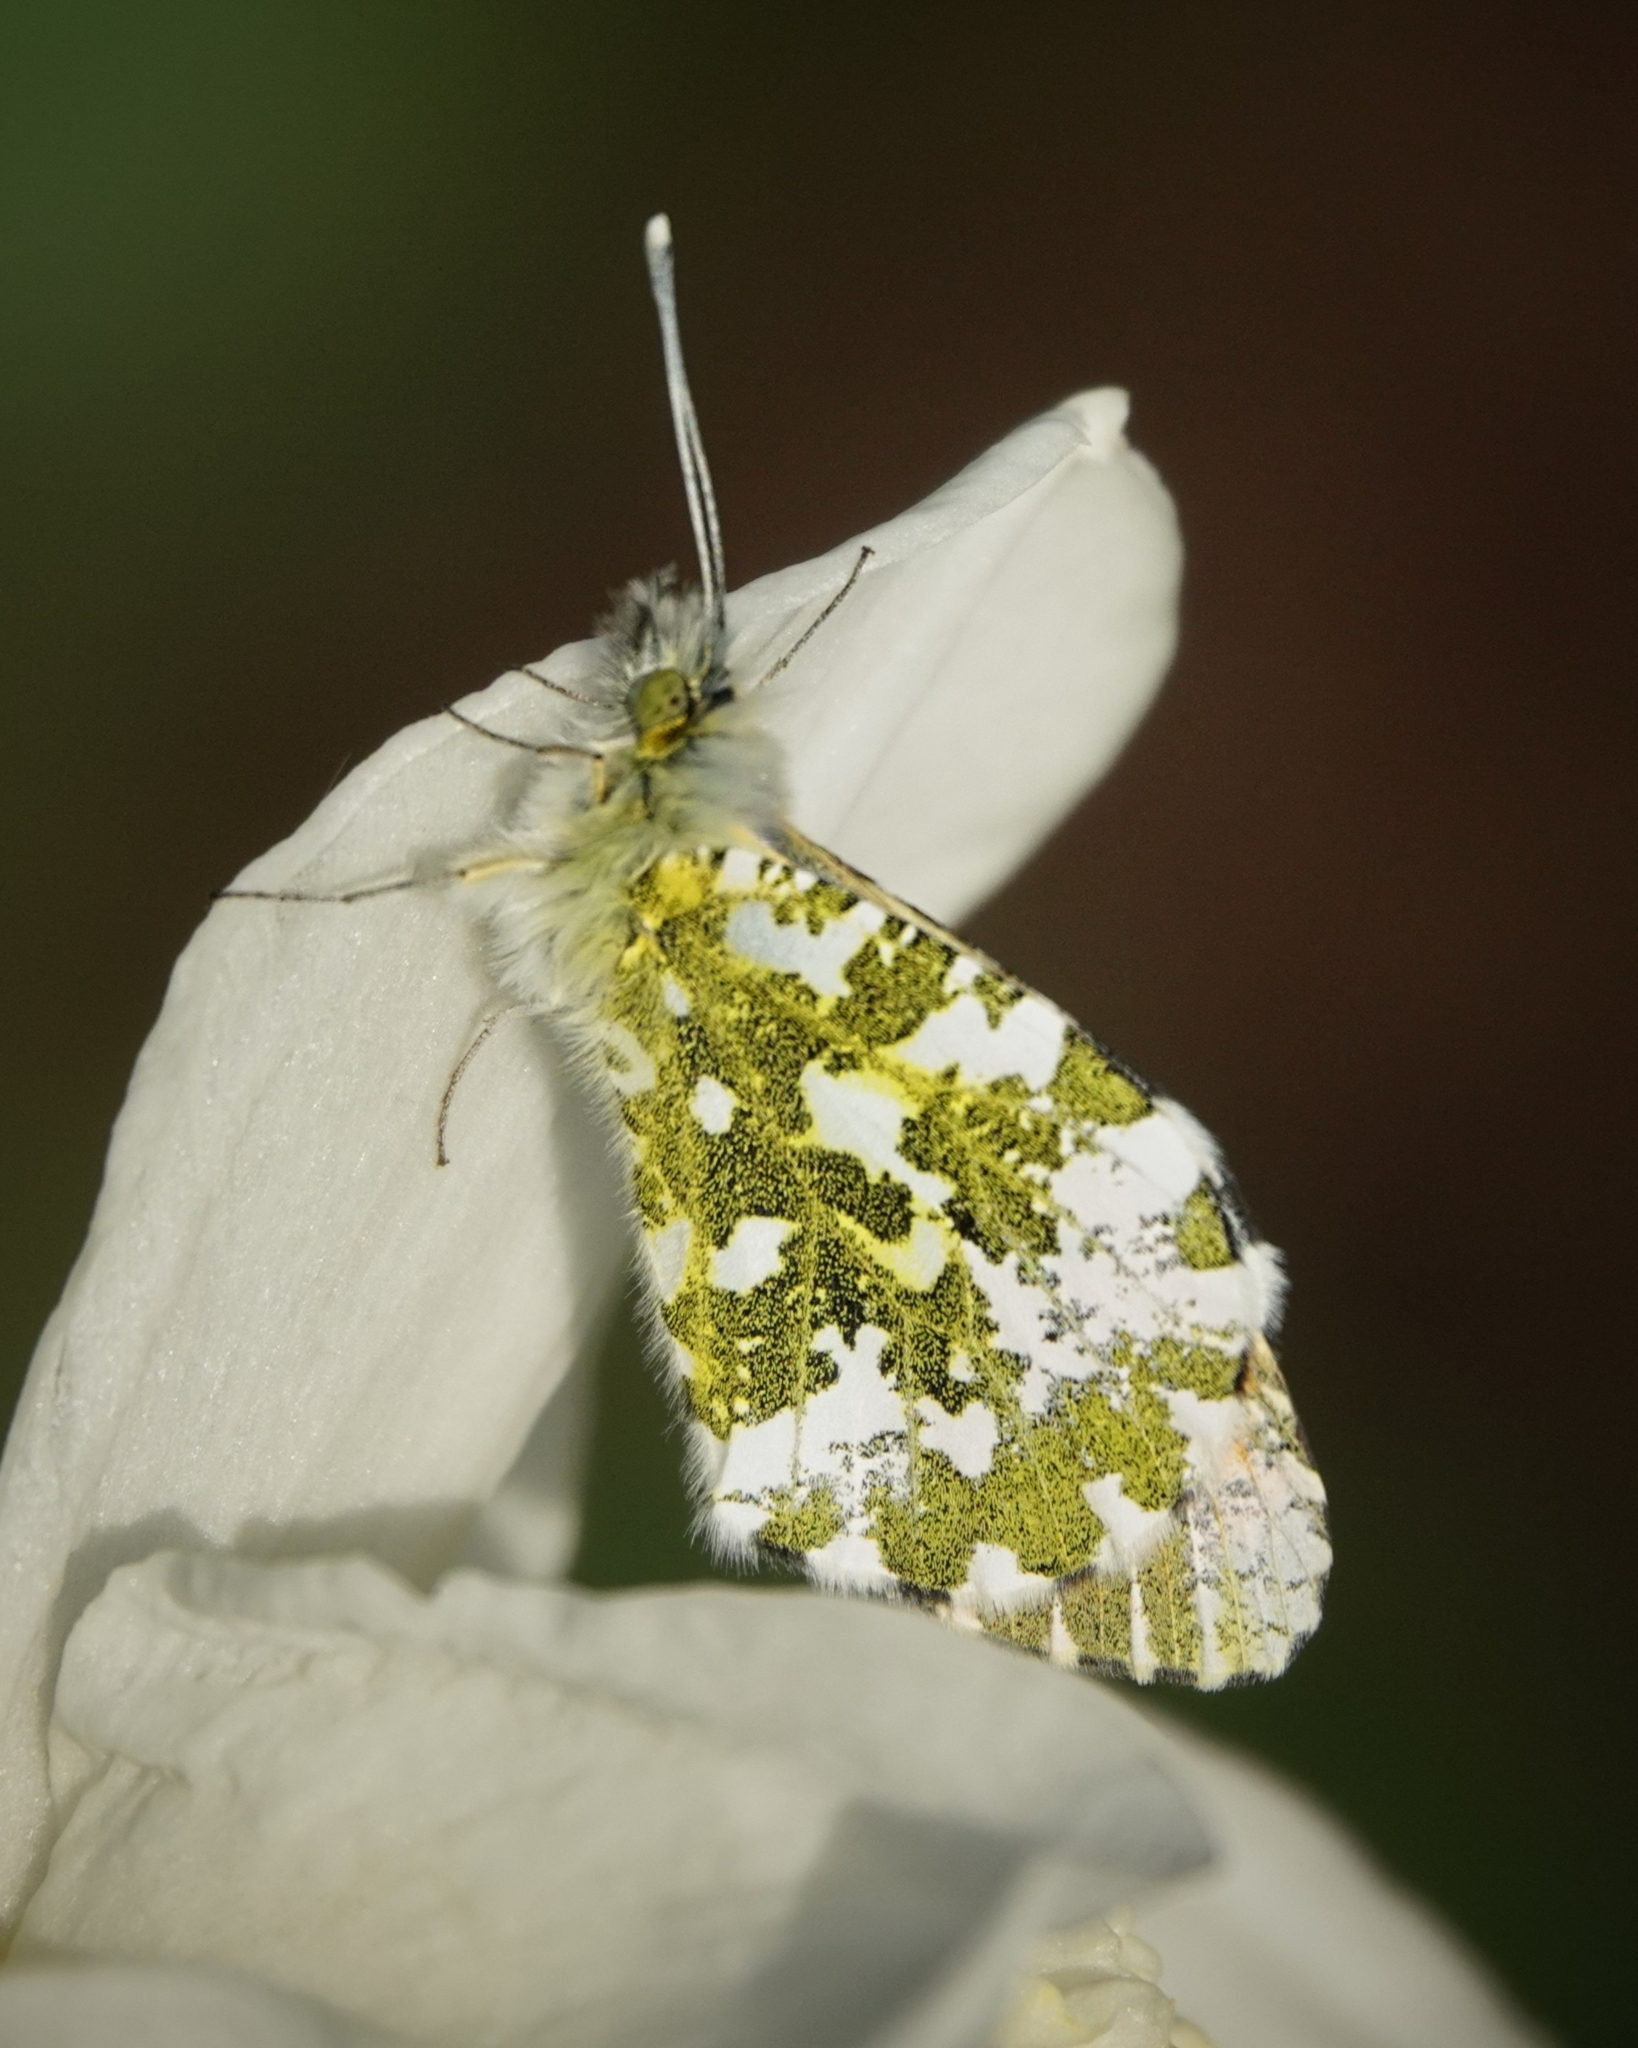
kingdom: Animalia
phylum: Arthropoda
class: Insecta
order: Lepidoptera
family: Pieridae
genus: Anthocharis
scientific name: Anthocharis cardamines
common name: Orange-tip
